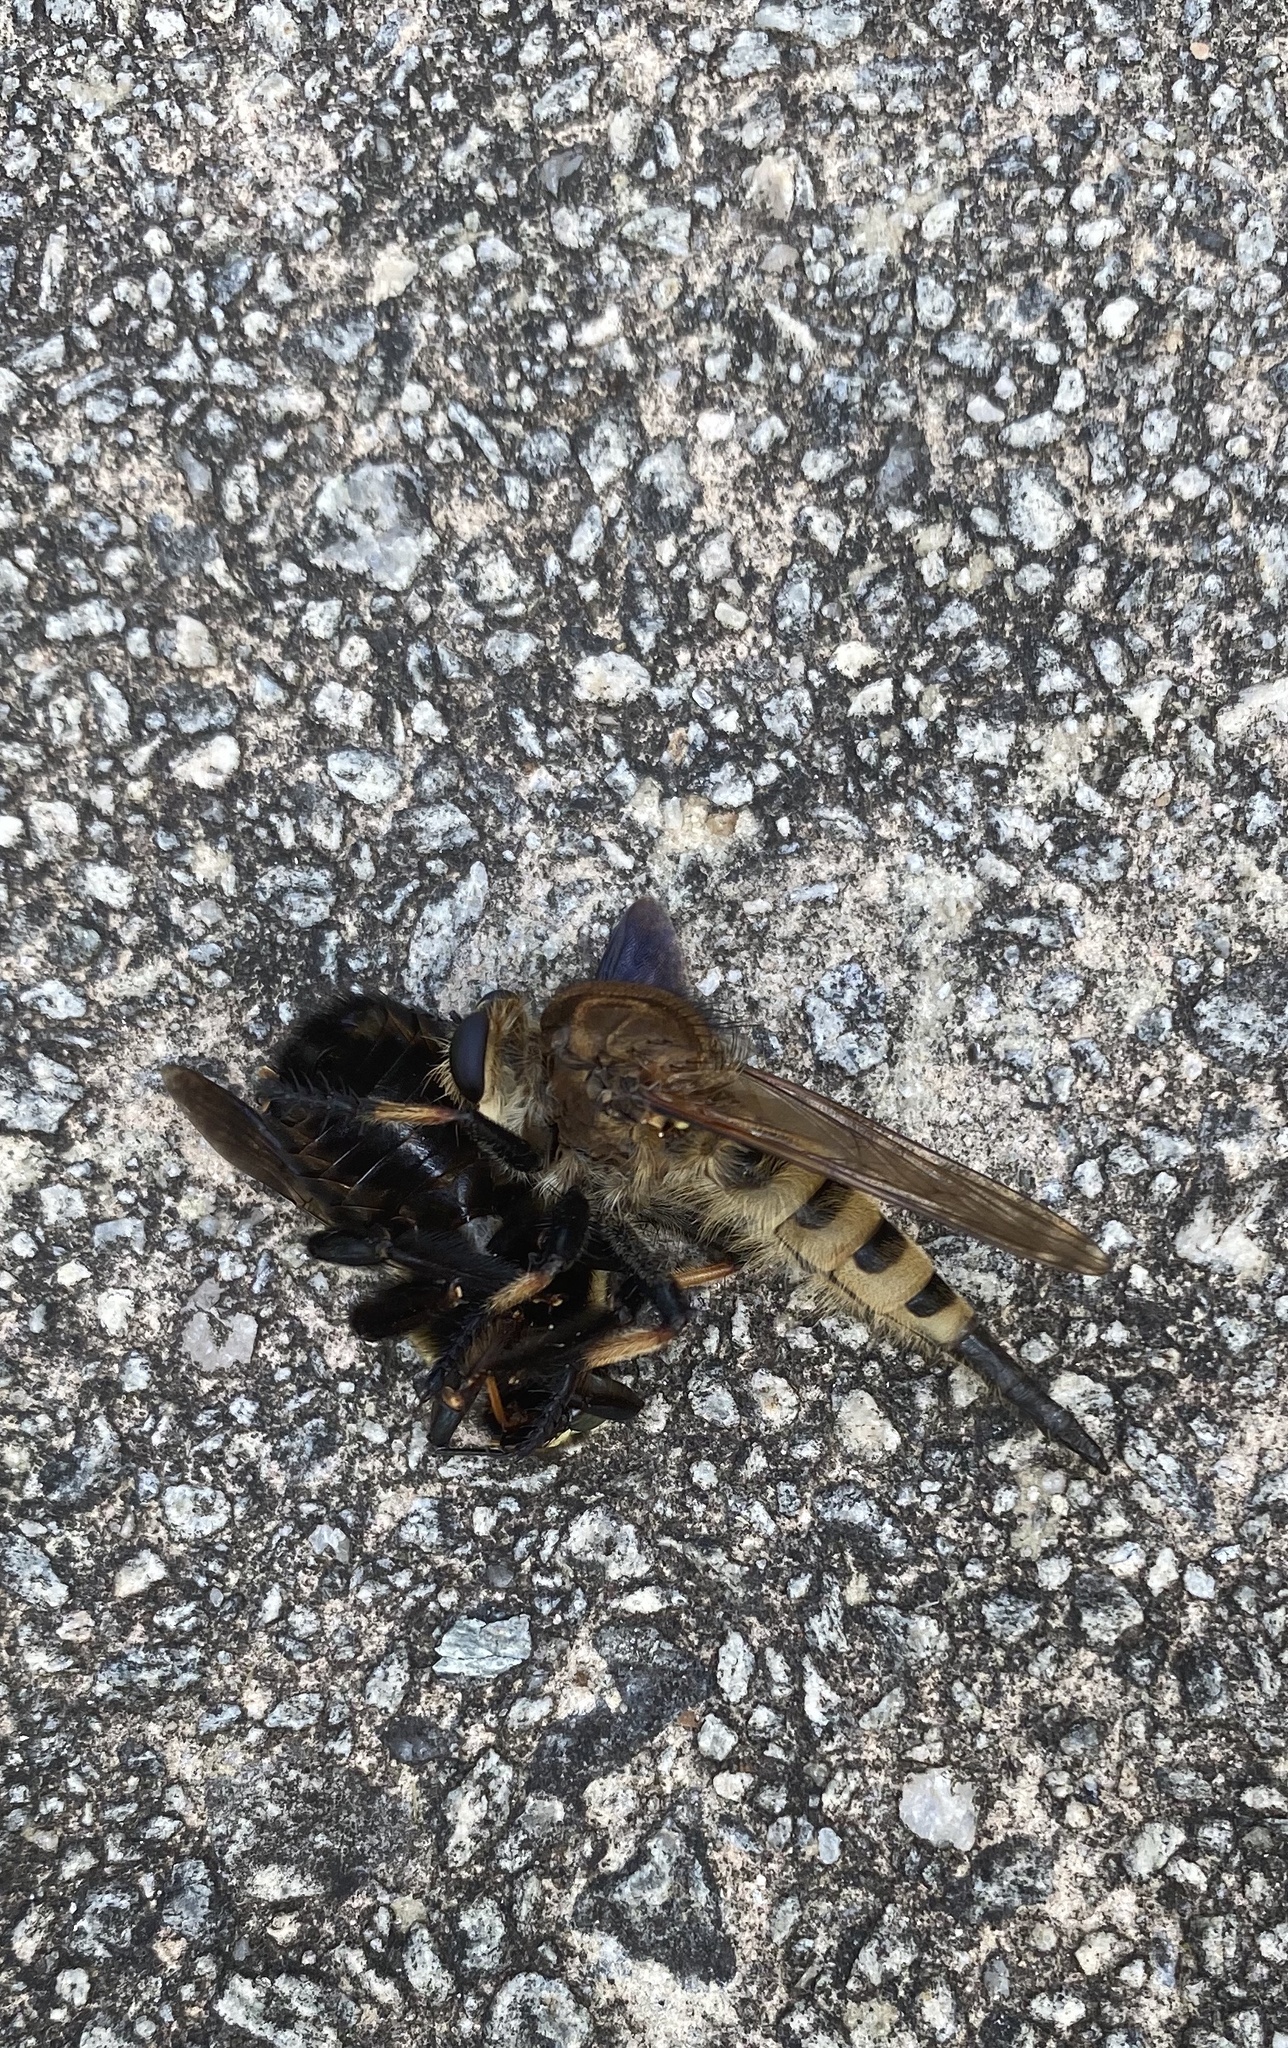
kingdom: Animalia
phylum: Arthropoda
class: Insecta
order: Diptera
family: Asilidae
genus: Promachus
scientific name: Promachus rufipes
